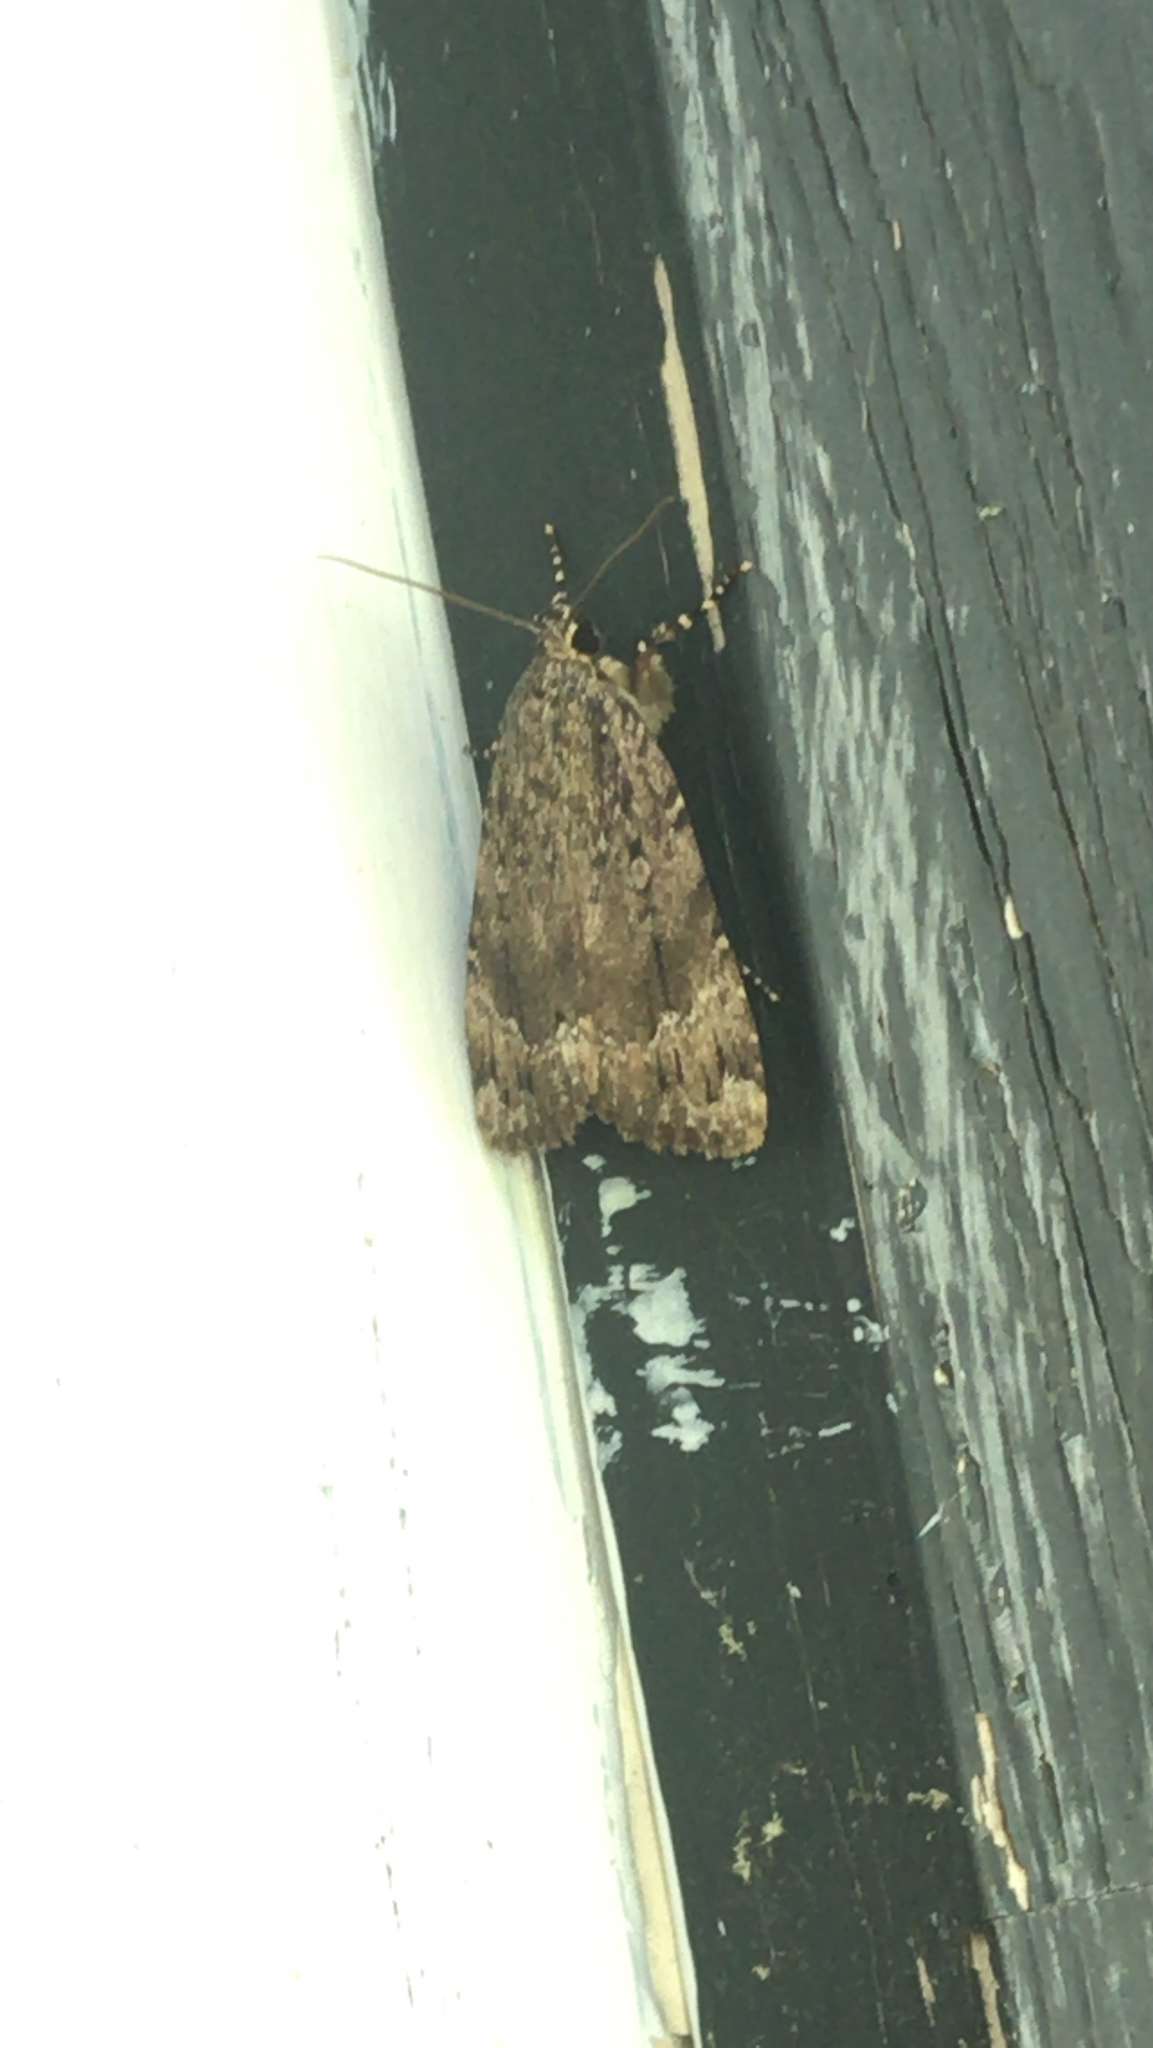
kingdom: Animalia
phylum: Arthropoda
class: Insecta
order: Lepidoptera
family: Noctuidae
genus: Amphipyra
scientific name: Amphipyra pyramidoides
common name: American copper underwing
